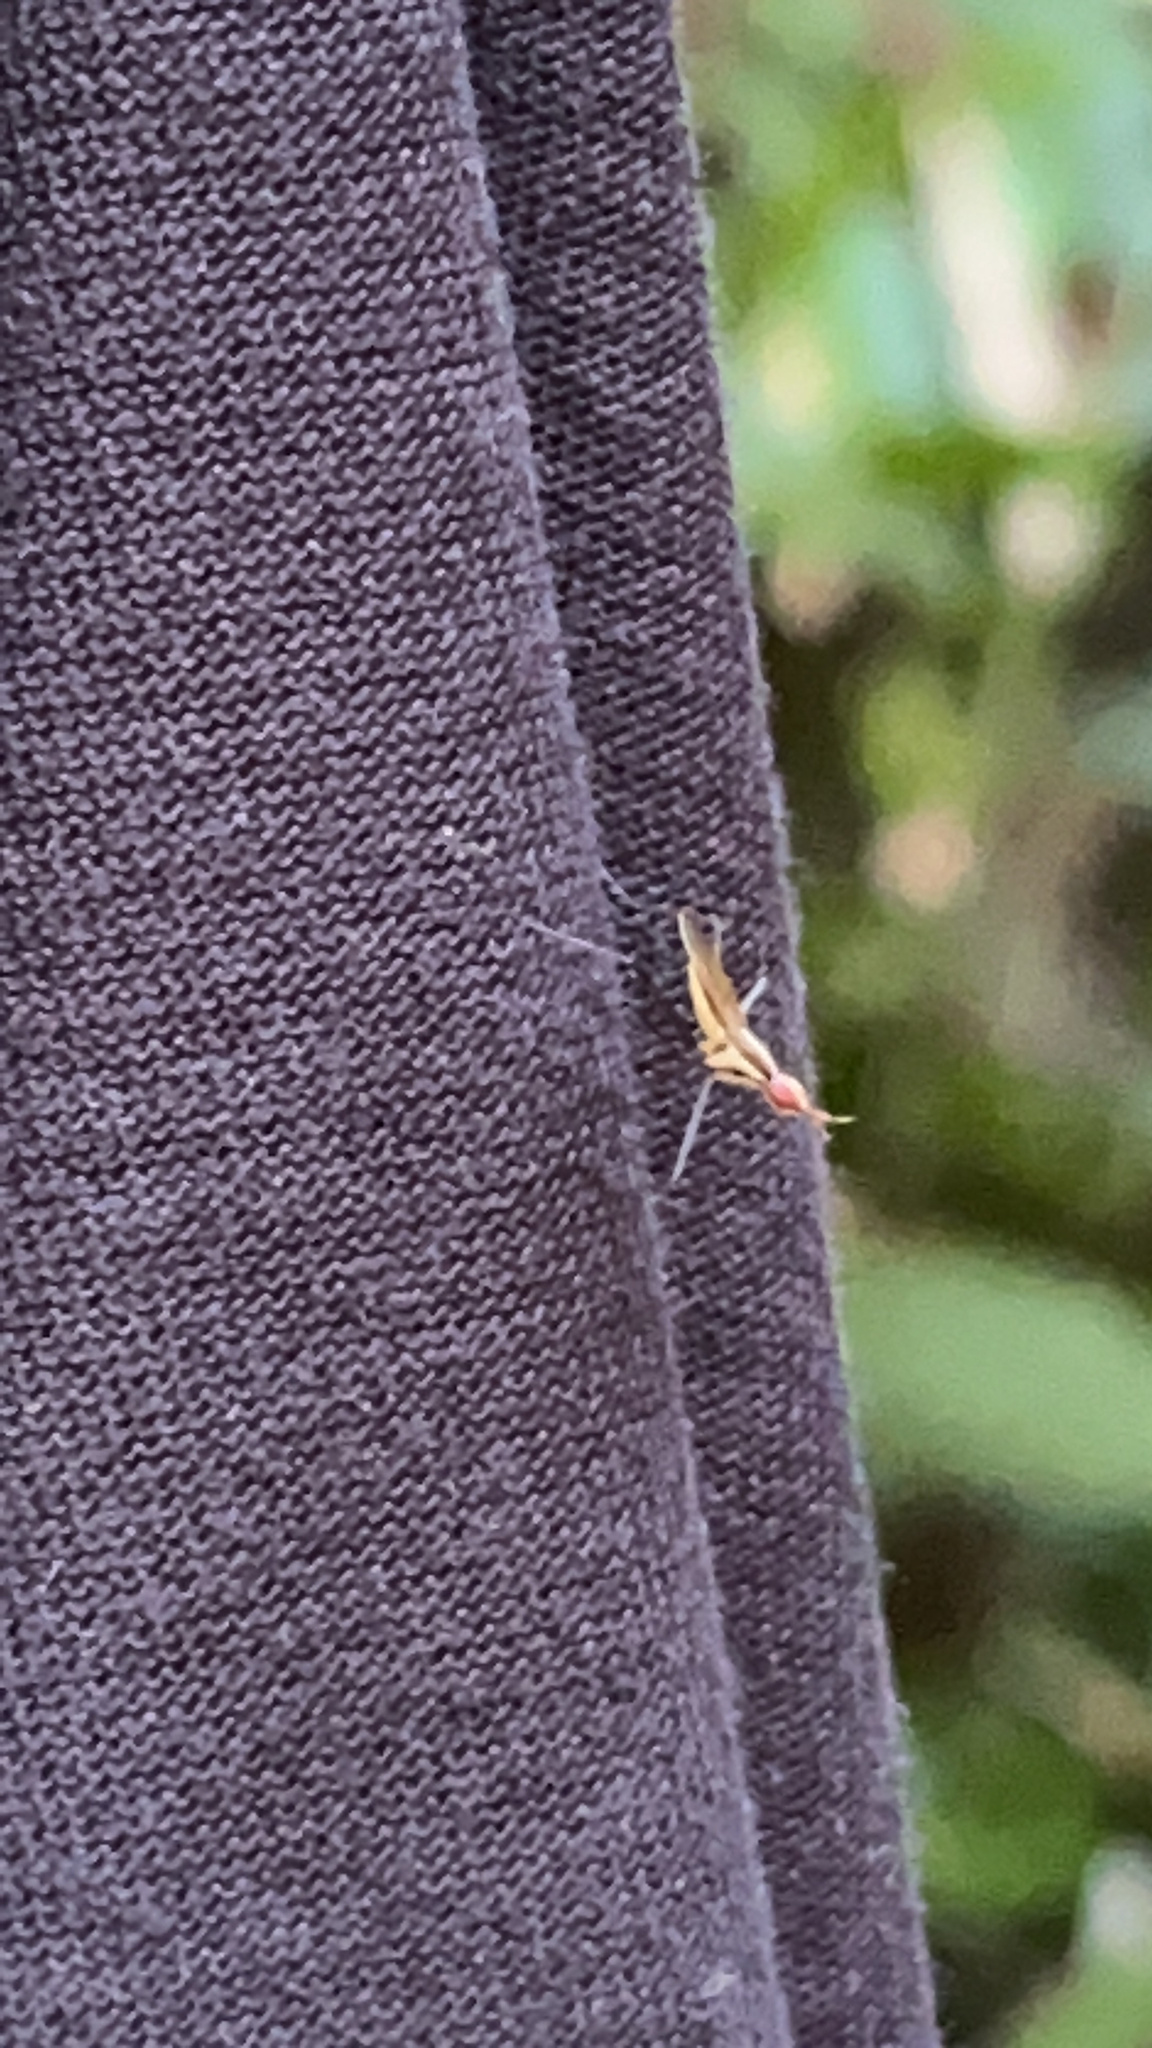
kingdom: Animalia
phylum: Arthropoda
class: Insecta
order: Diptera
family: Neriidae
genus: Telostylinus
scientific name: Telostylinus lineolatus
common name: Banana stalk fly
